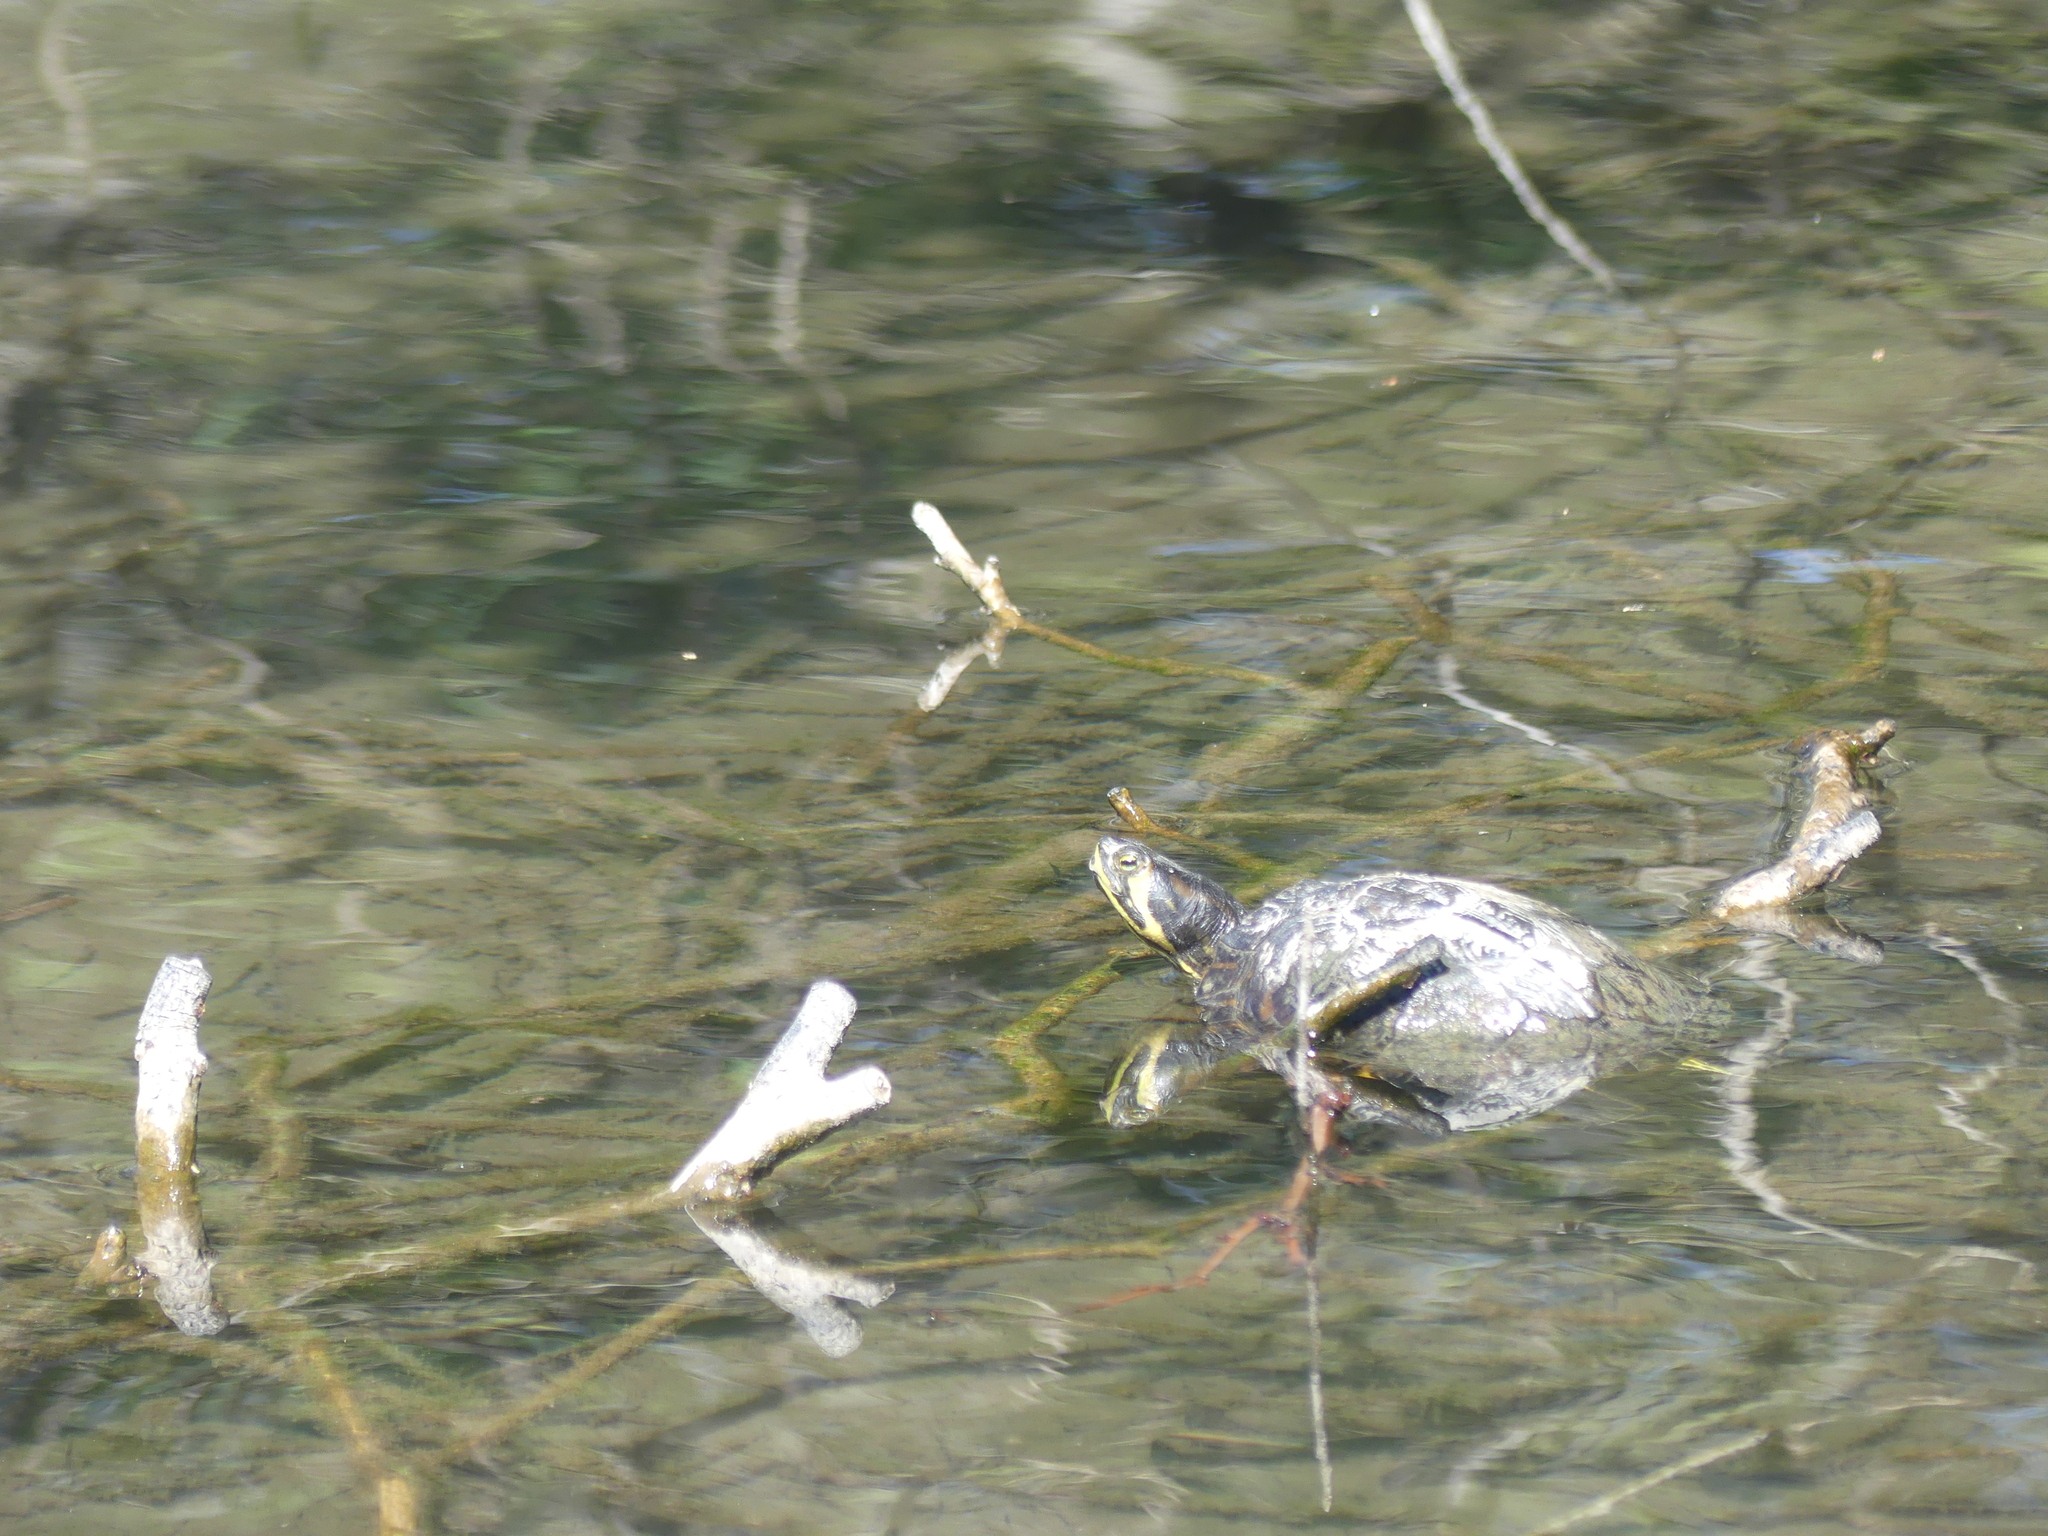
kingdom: Animalia
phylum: Chordata
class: Testudines
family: Emydidae
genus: Trachemys
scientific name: Trachemys scripta
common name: Slider
